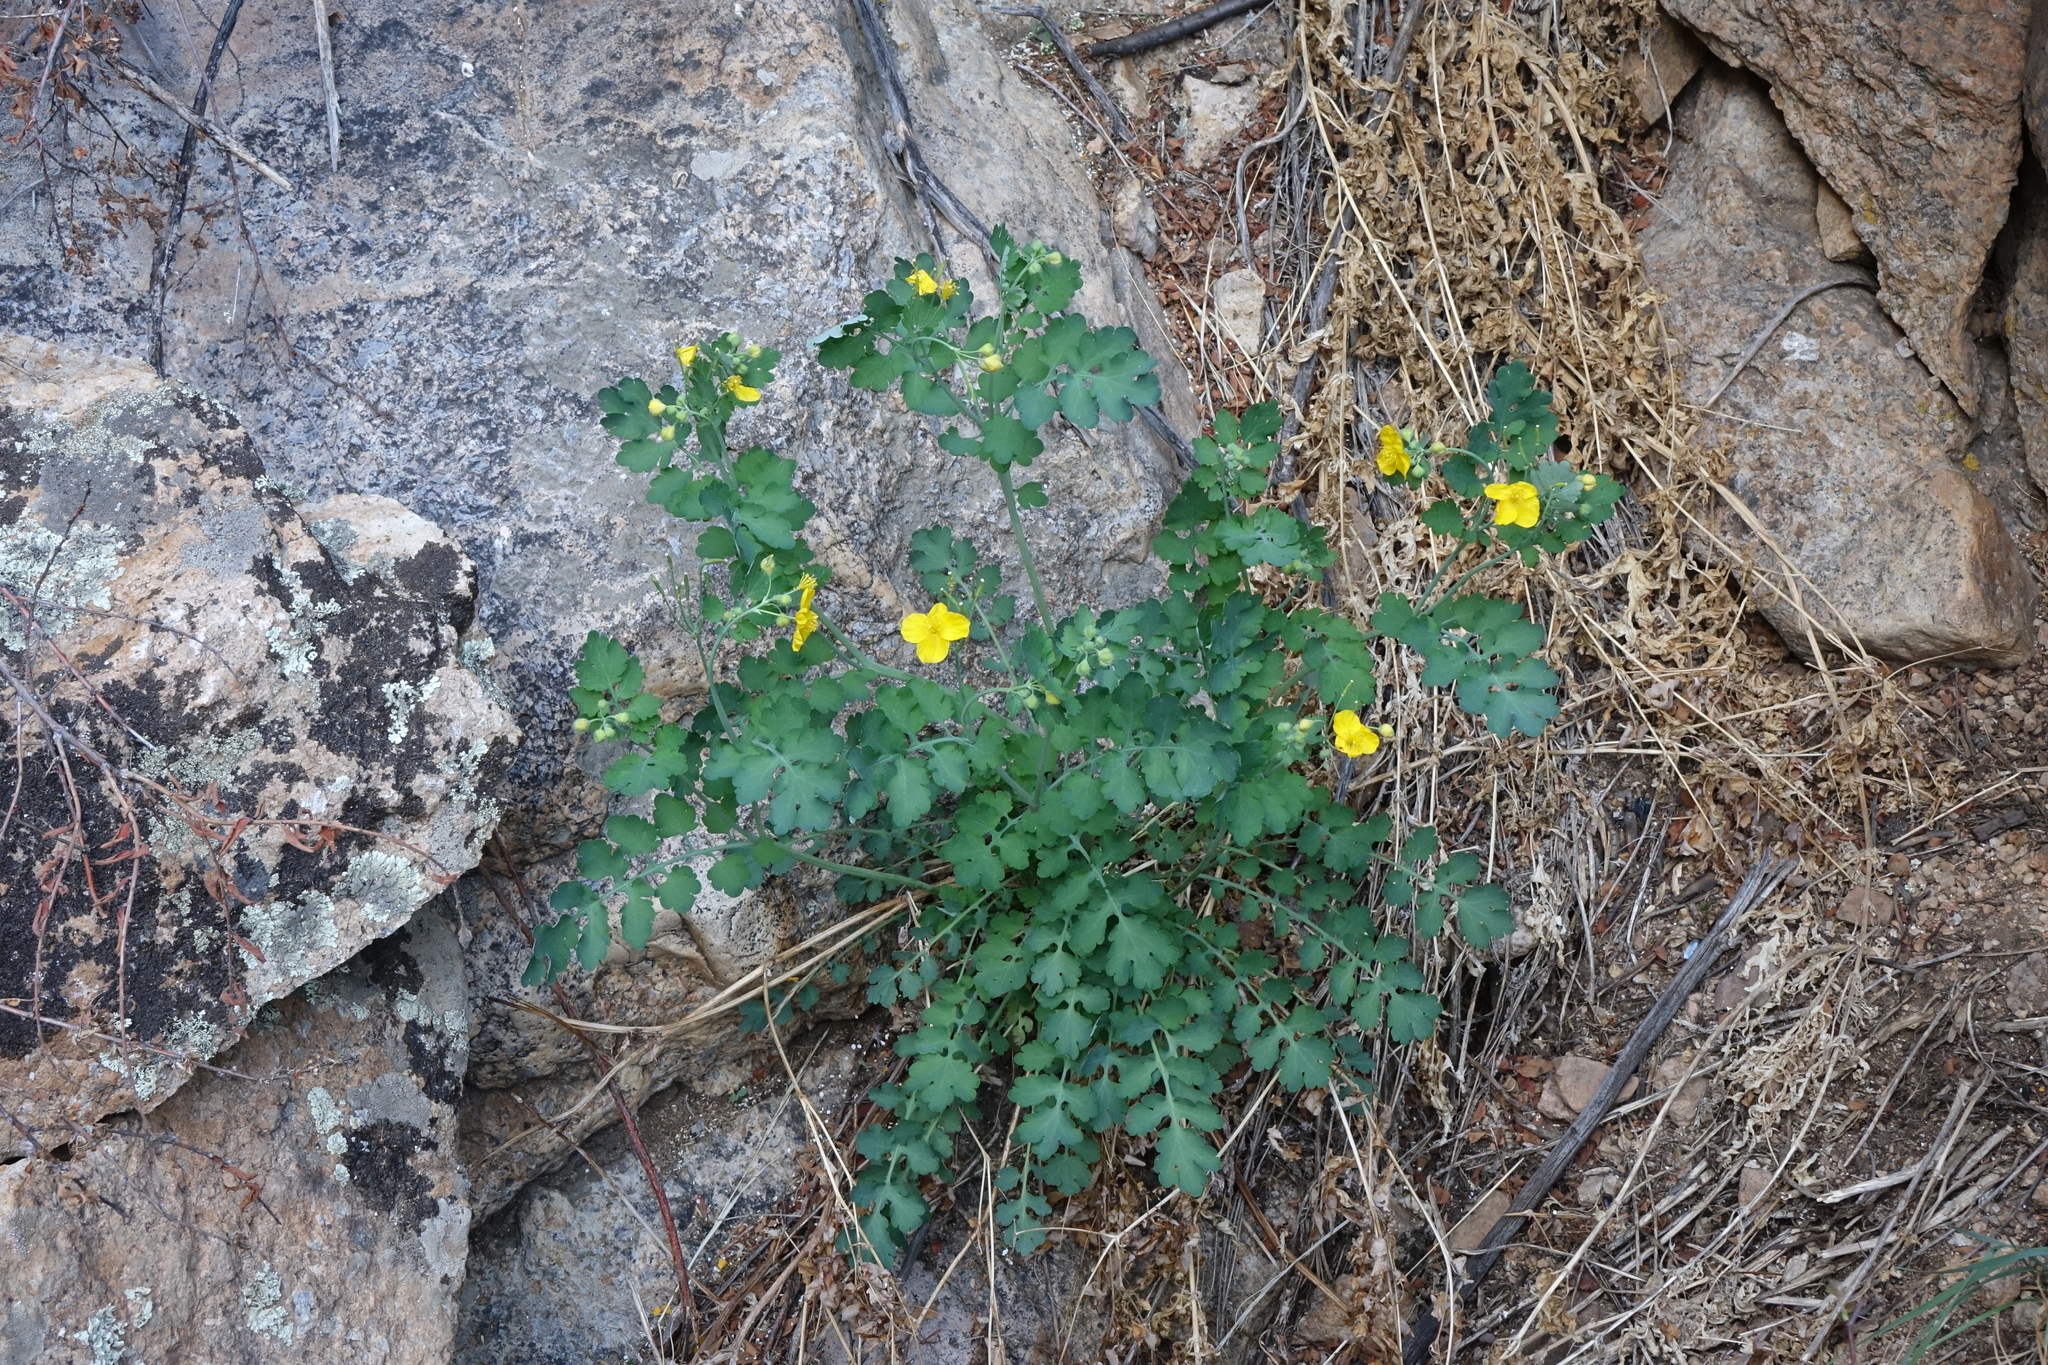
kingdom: Plantae
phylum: Tracheophyta
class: Magnoliopsida
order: Ranunculales
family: Papaveraceae
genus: Chelidonium
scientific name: Chelidonium majus
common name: Greater celandine
